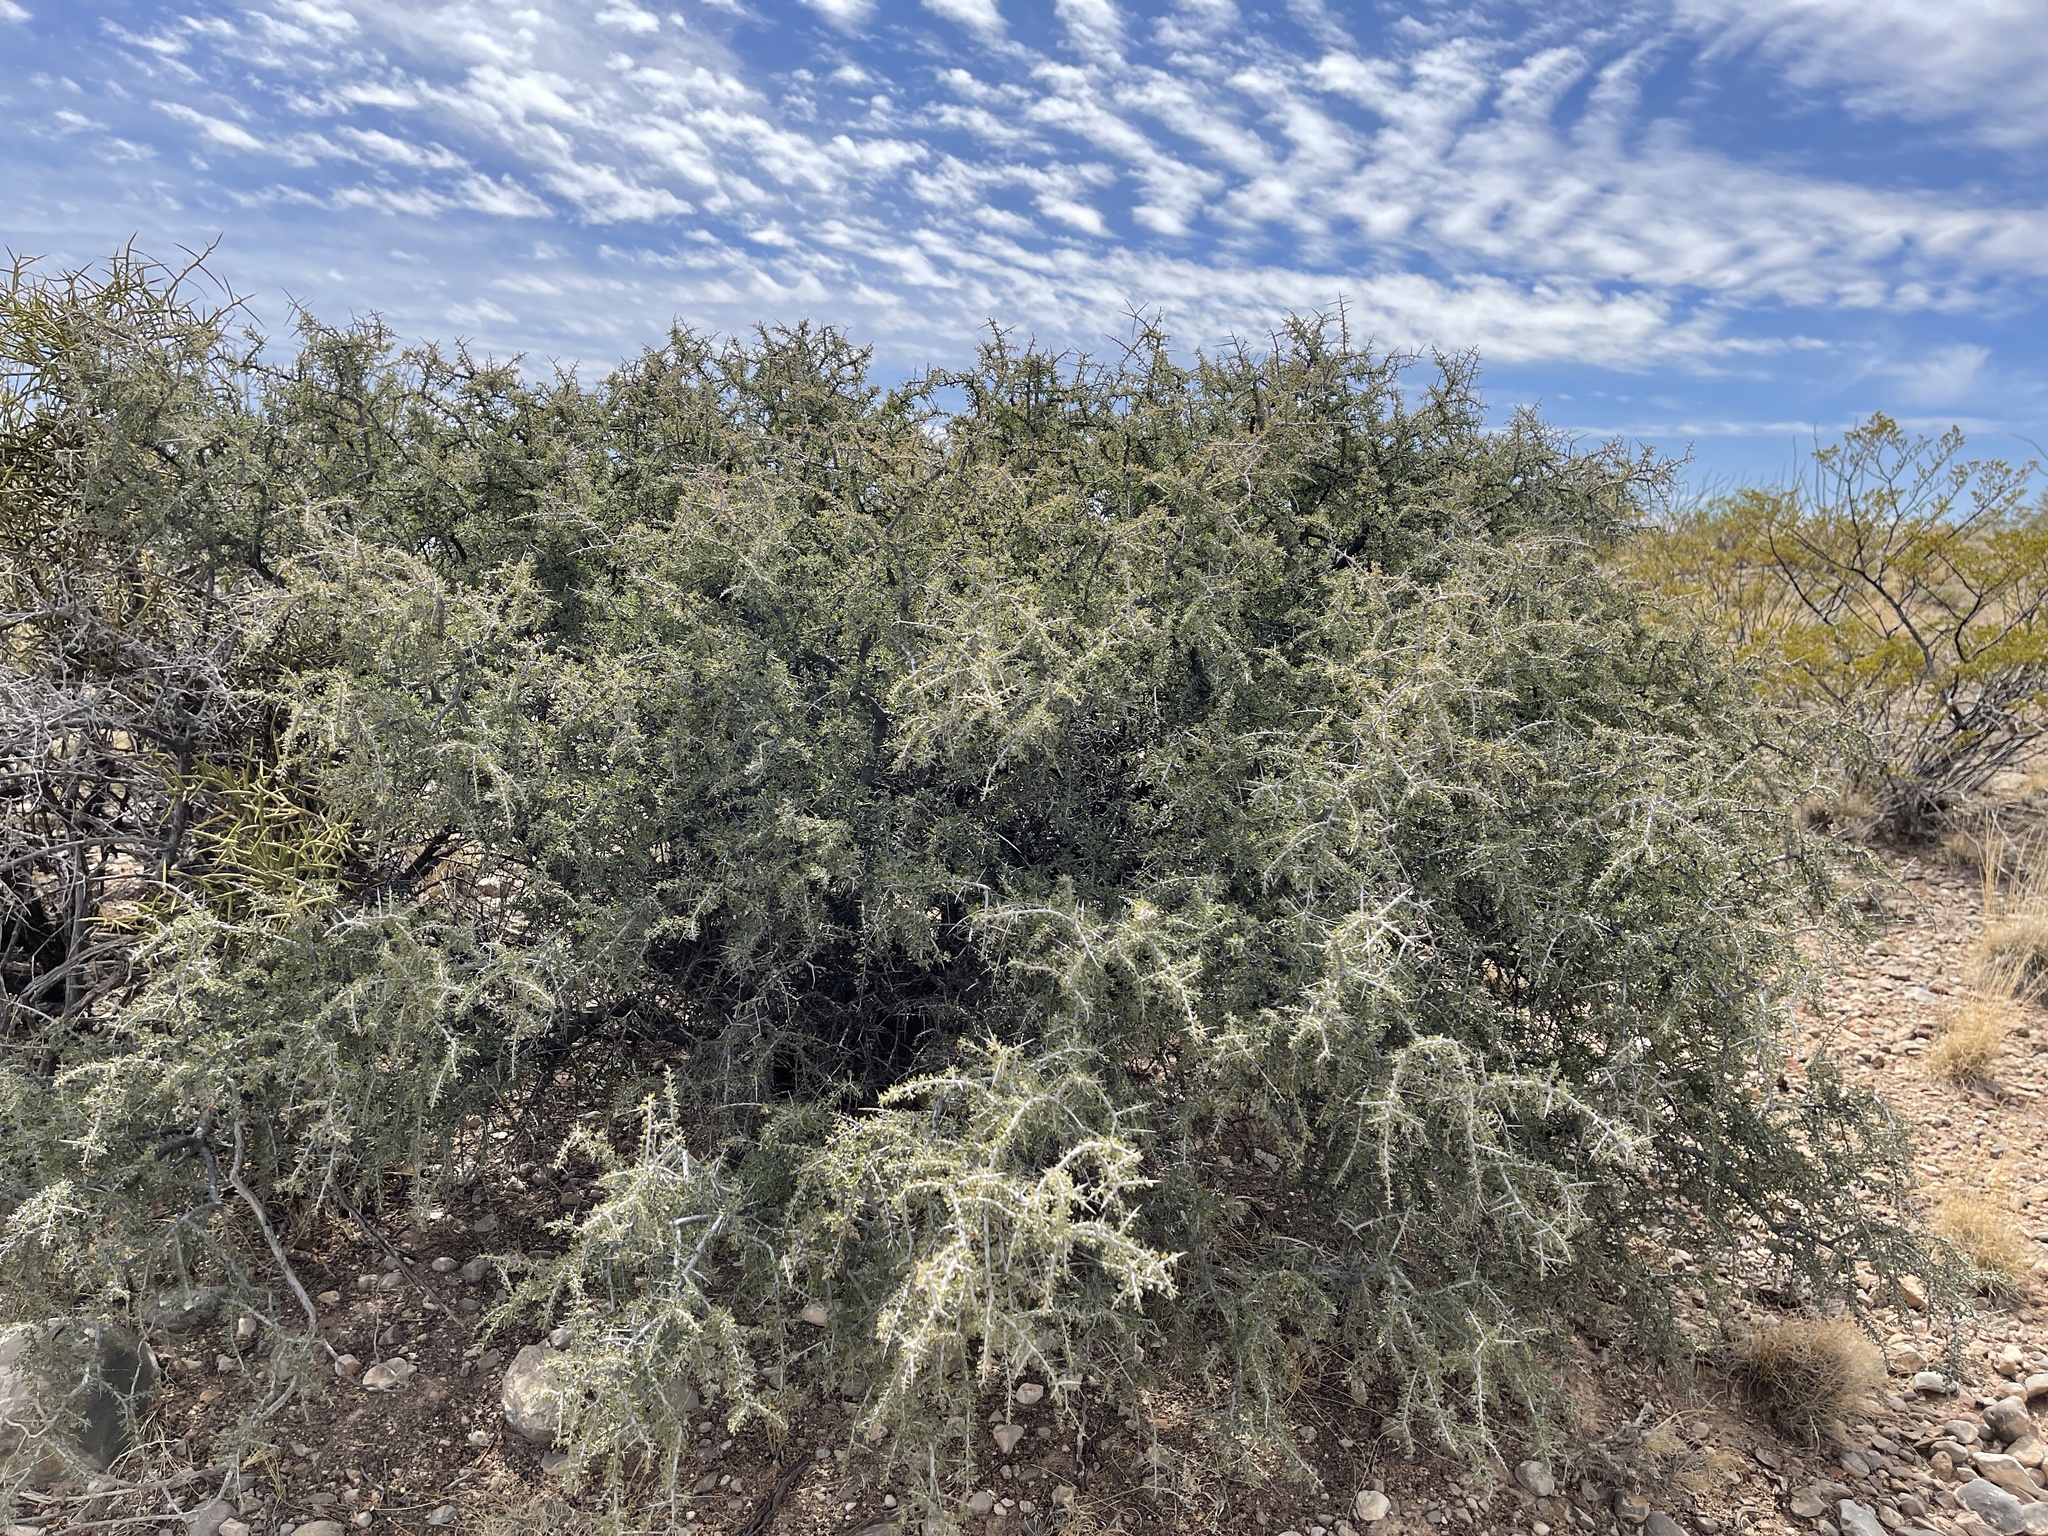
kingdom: Plantae
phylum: Tracheophyta
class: Magnoliopsida
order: Rosales
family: Rhamnaceae
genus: Condalia
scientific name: Condalia warnockii
